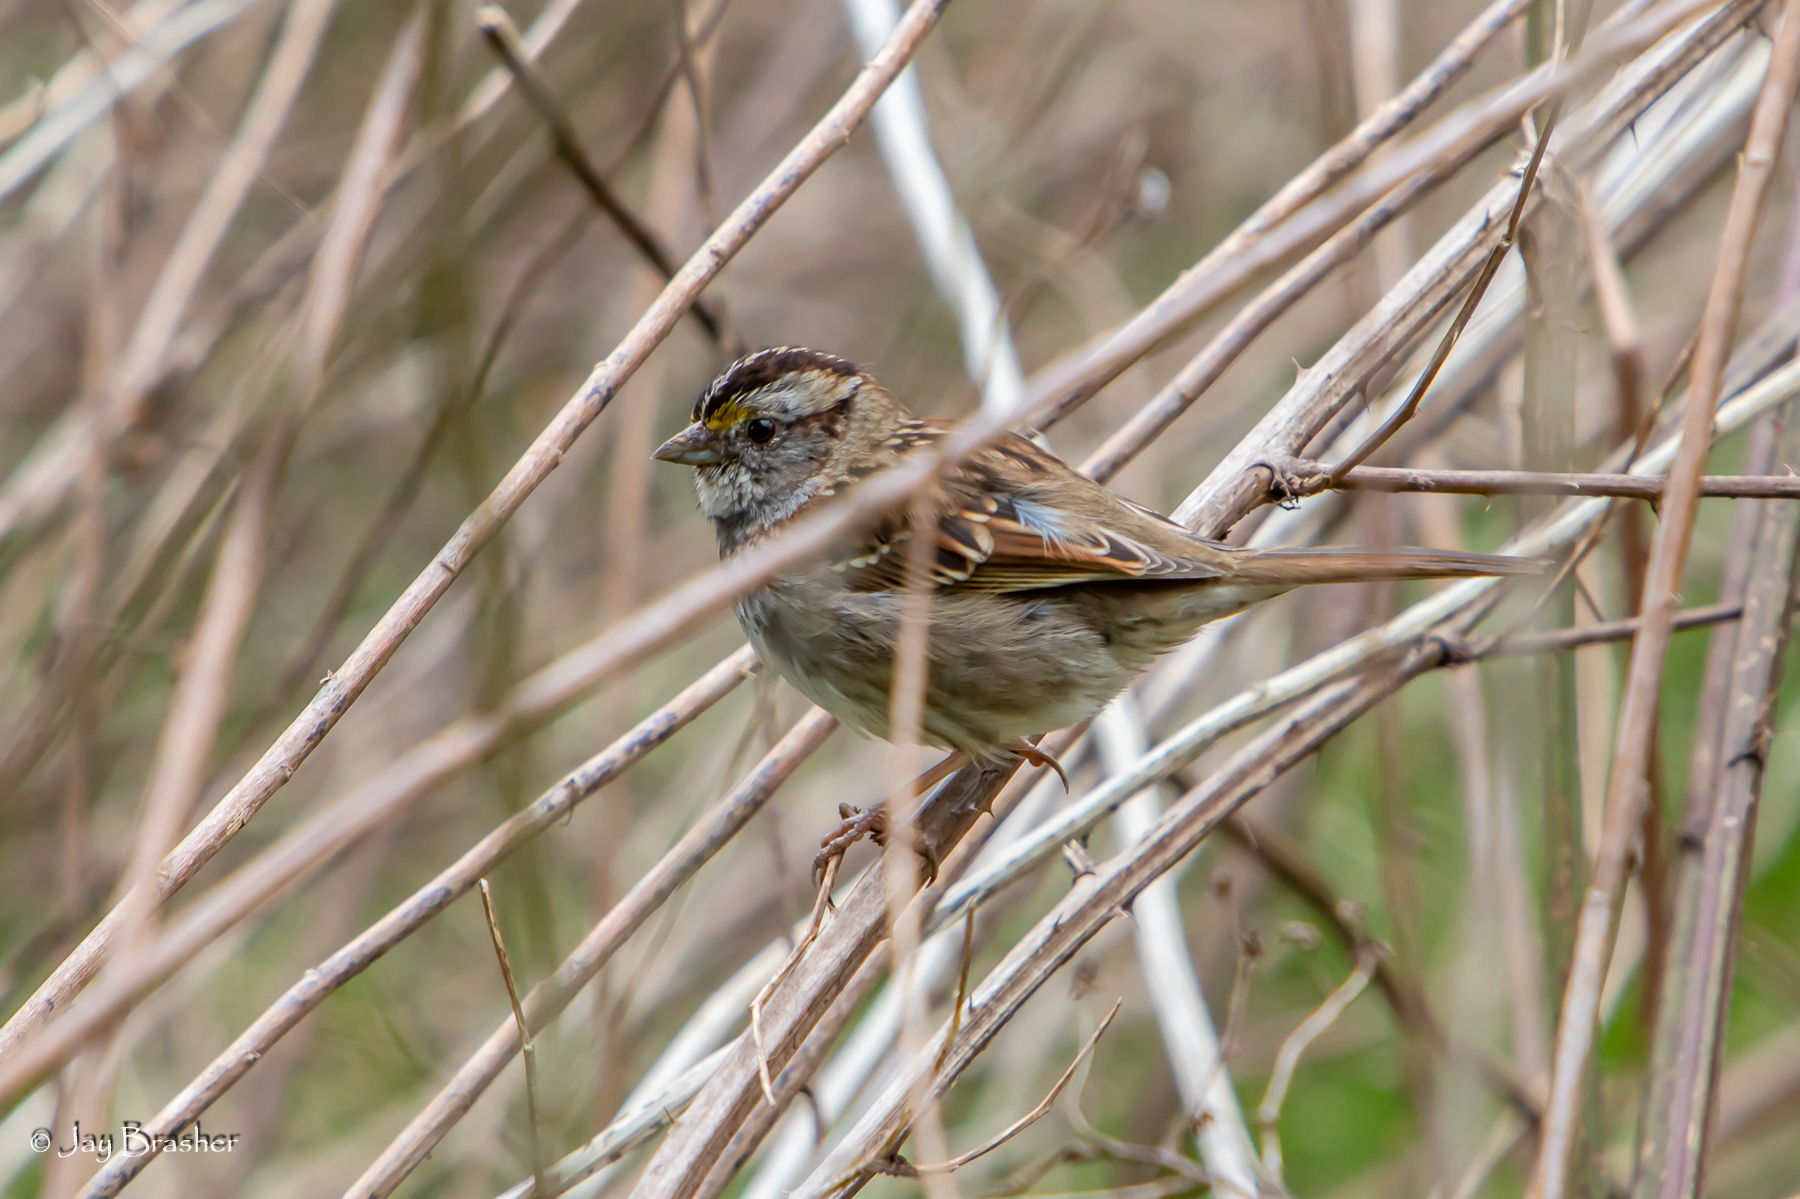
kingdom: Animalia
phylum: Chordata
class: Aves
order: Passeriformes
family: Passerellidae
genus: Zonotrichia
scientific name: Zonotrichia albicollis
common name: White-throated sparrow
